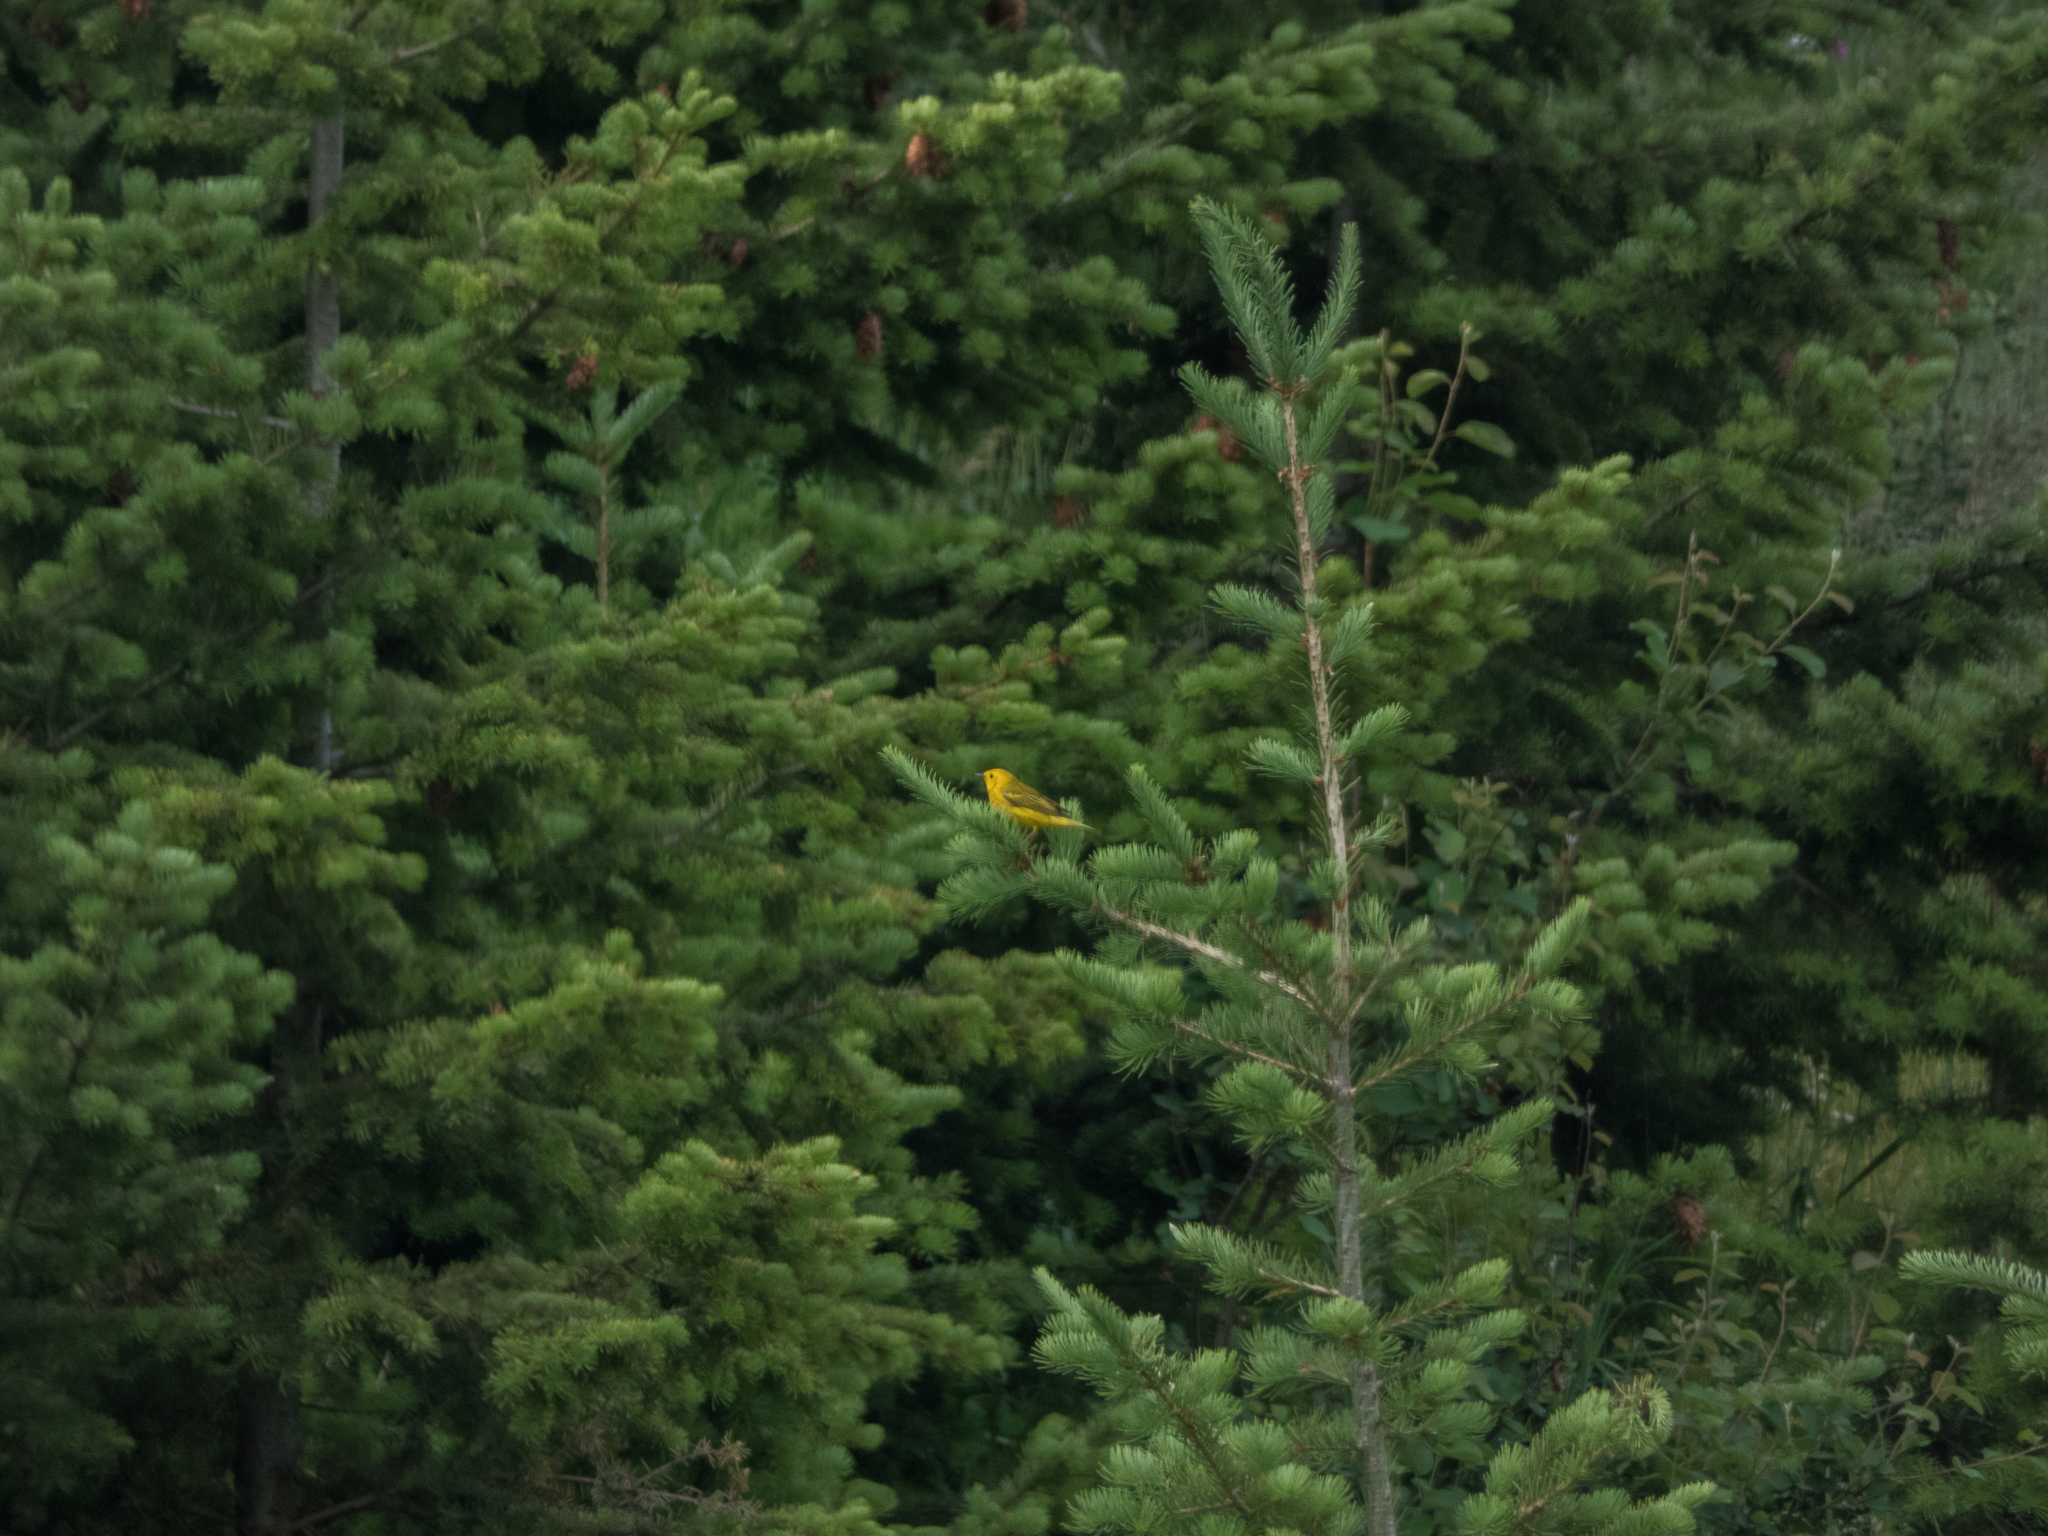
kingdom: Animalia
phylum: Chordata
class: Aves
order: Passeriformes
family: Parulidae
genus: Setophaga
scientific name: Setophaga petechia
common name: Yellow warbler
